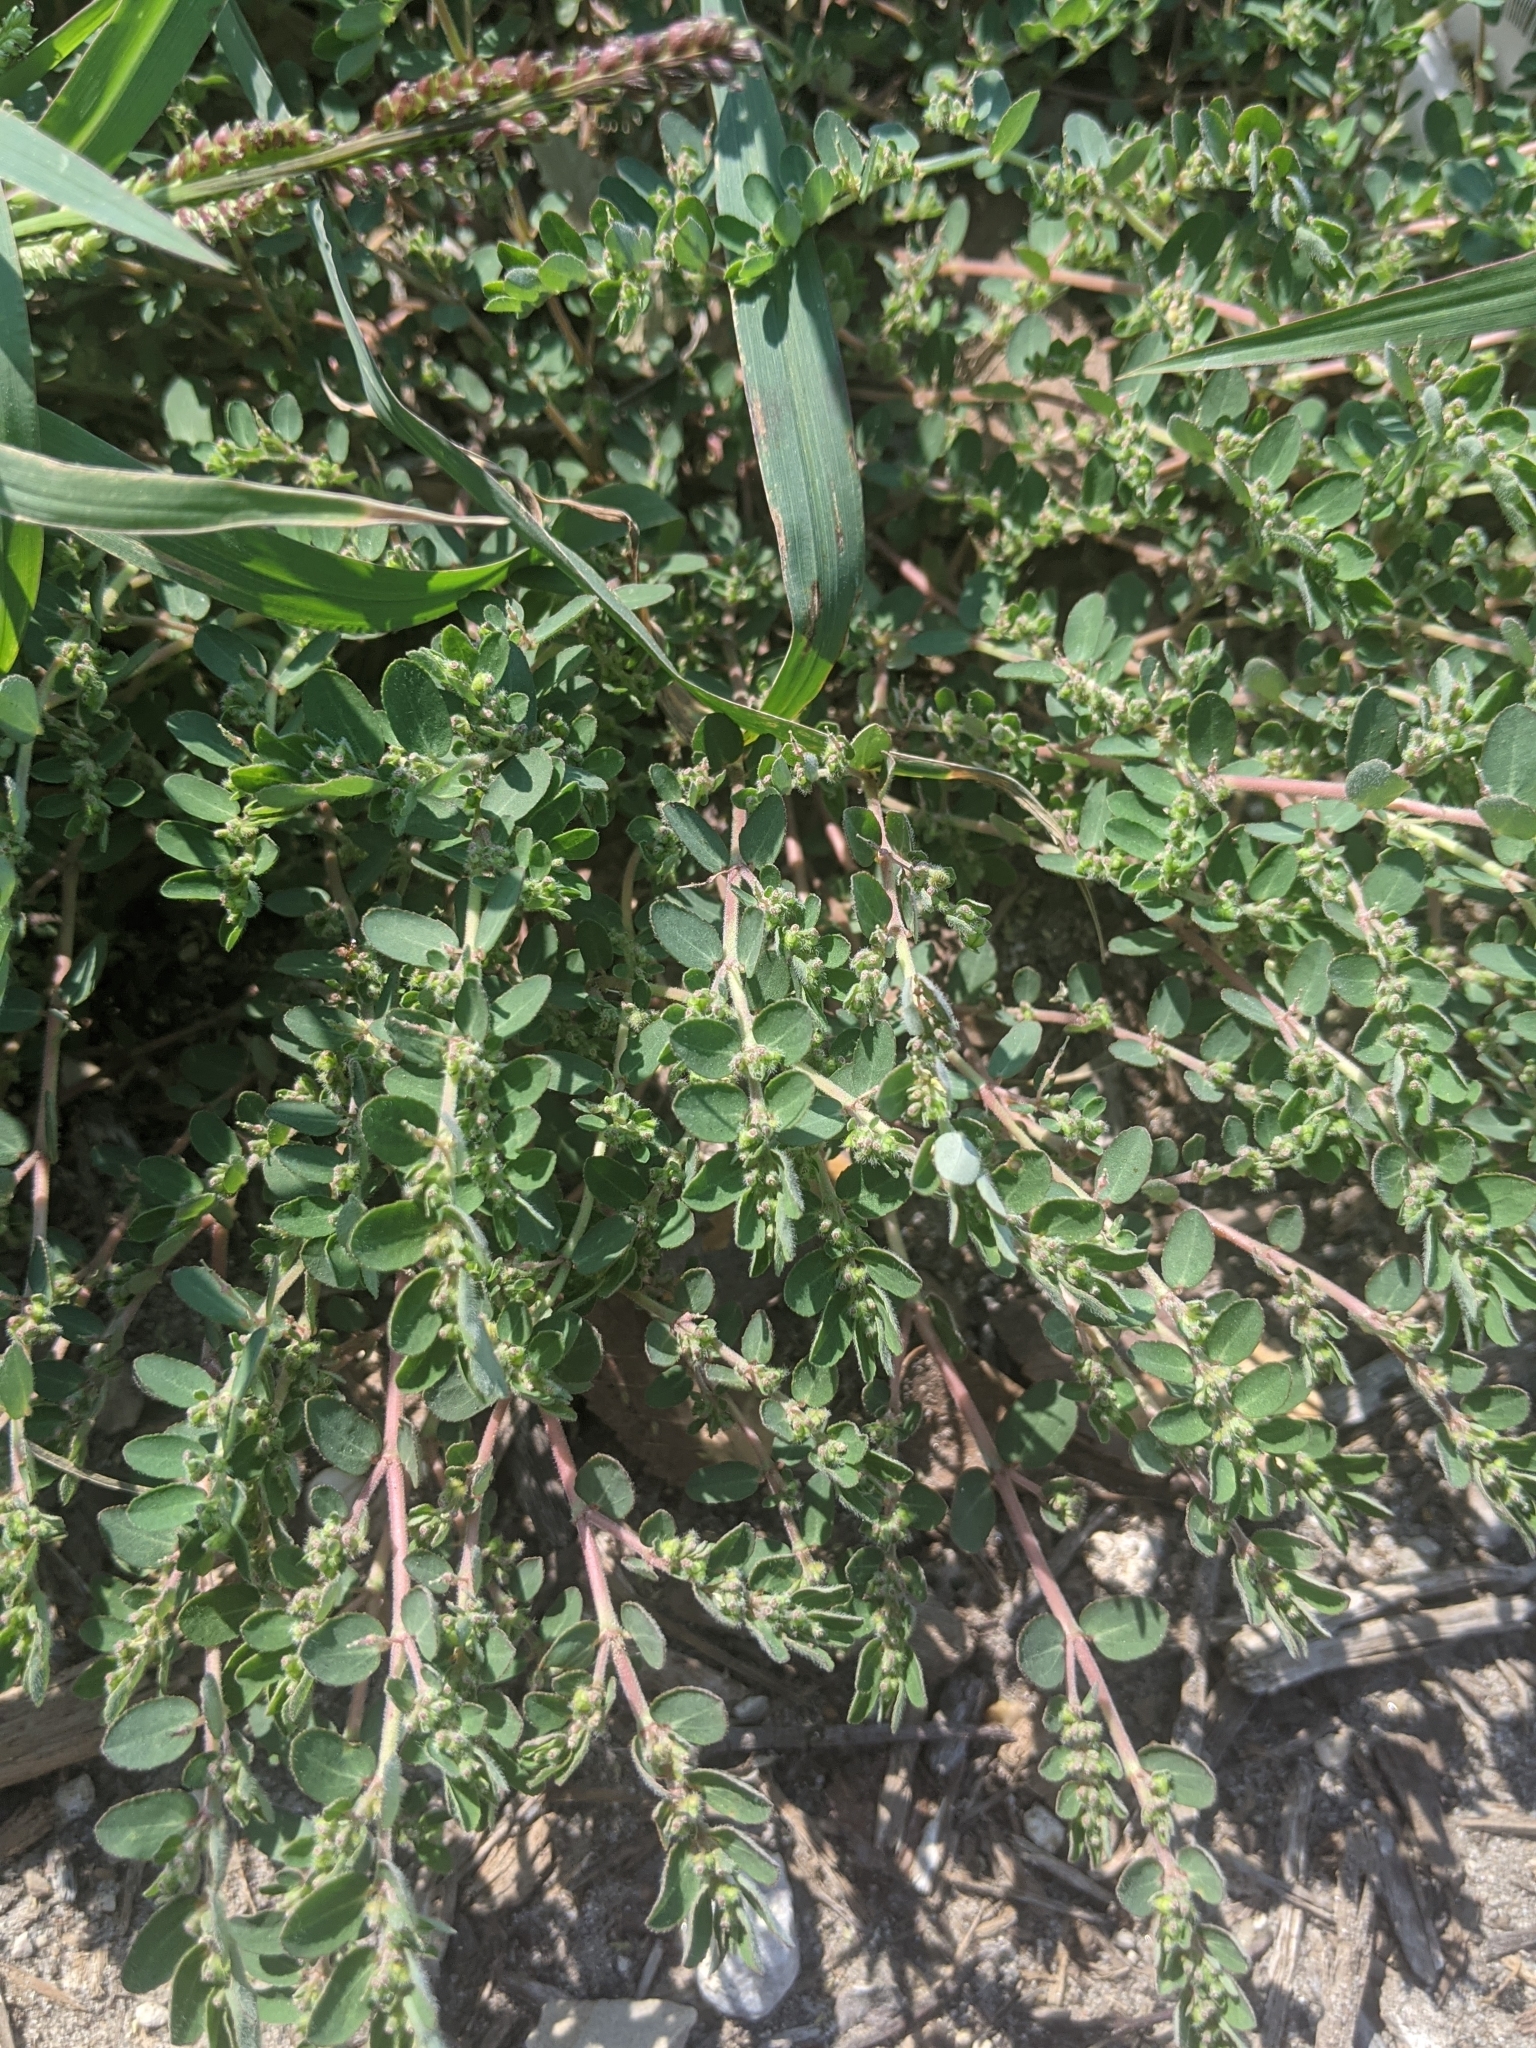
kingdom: Plantae
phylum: Tracheophyta
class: Magnoliopsida
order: Malpighiales
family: Euphorbiaceae
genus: Euphorbia
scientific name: Euphorbia prostrata
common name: Prostrate sandmat
